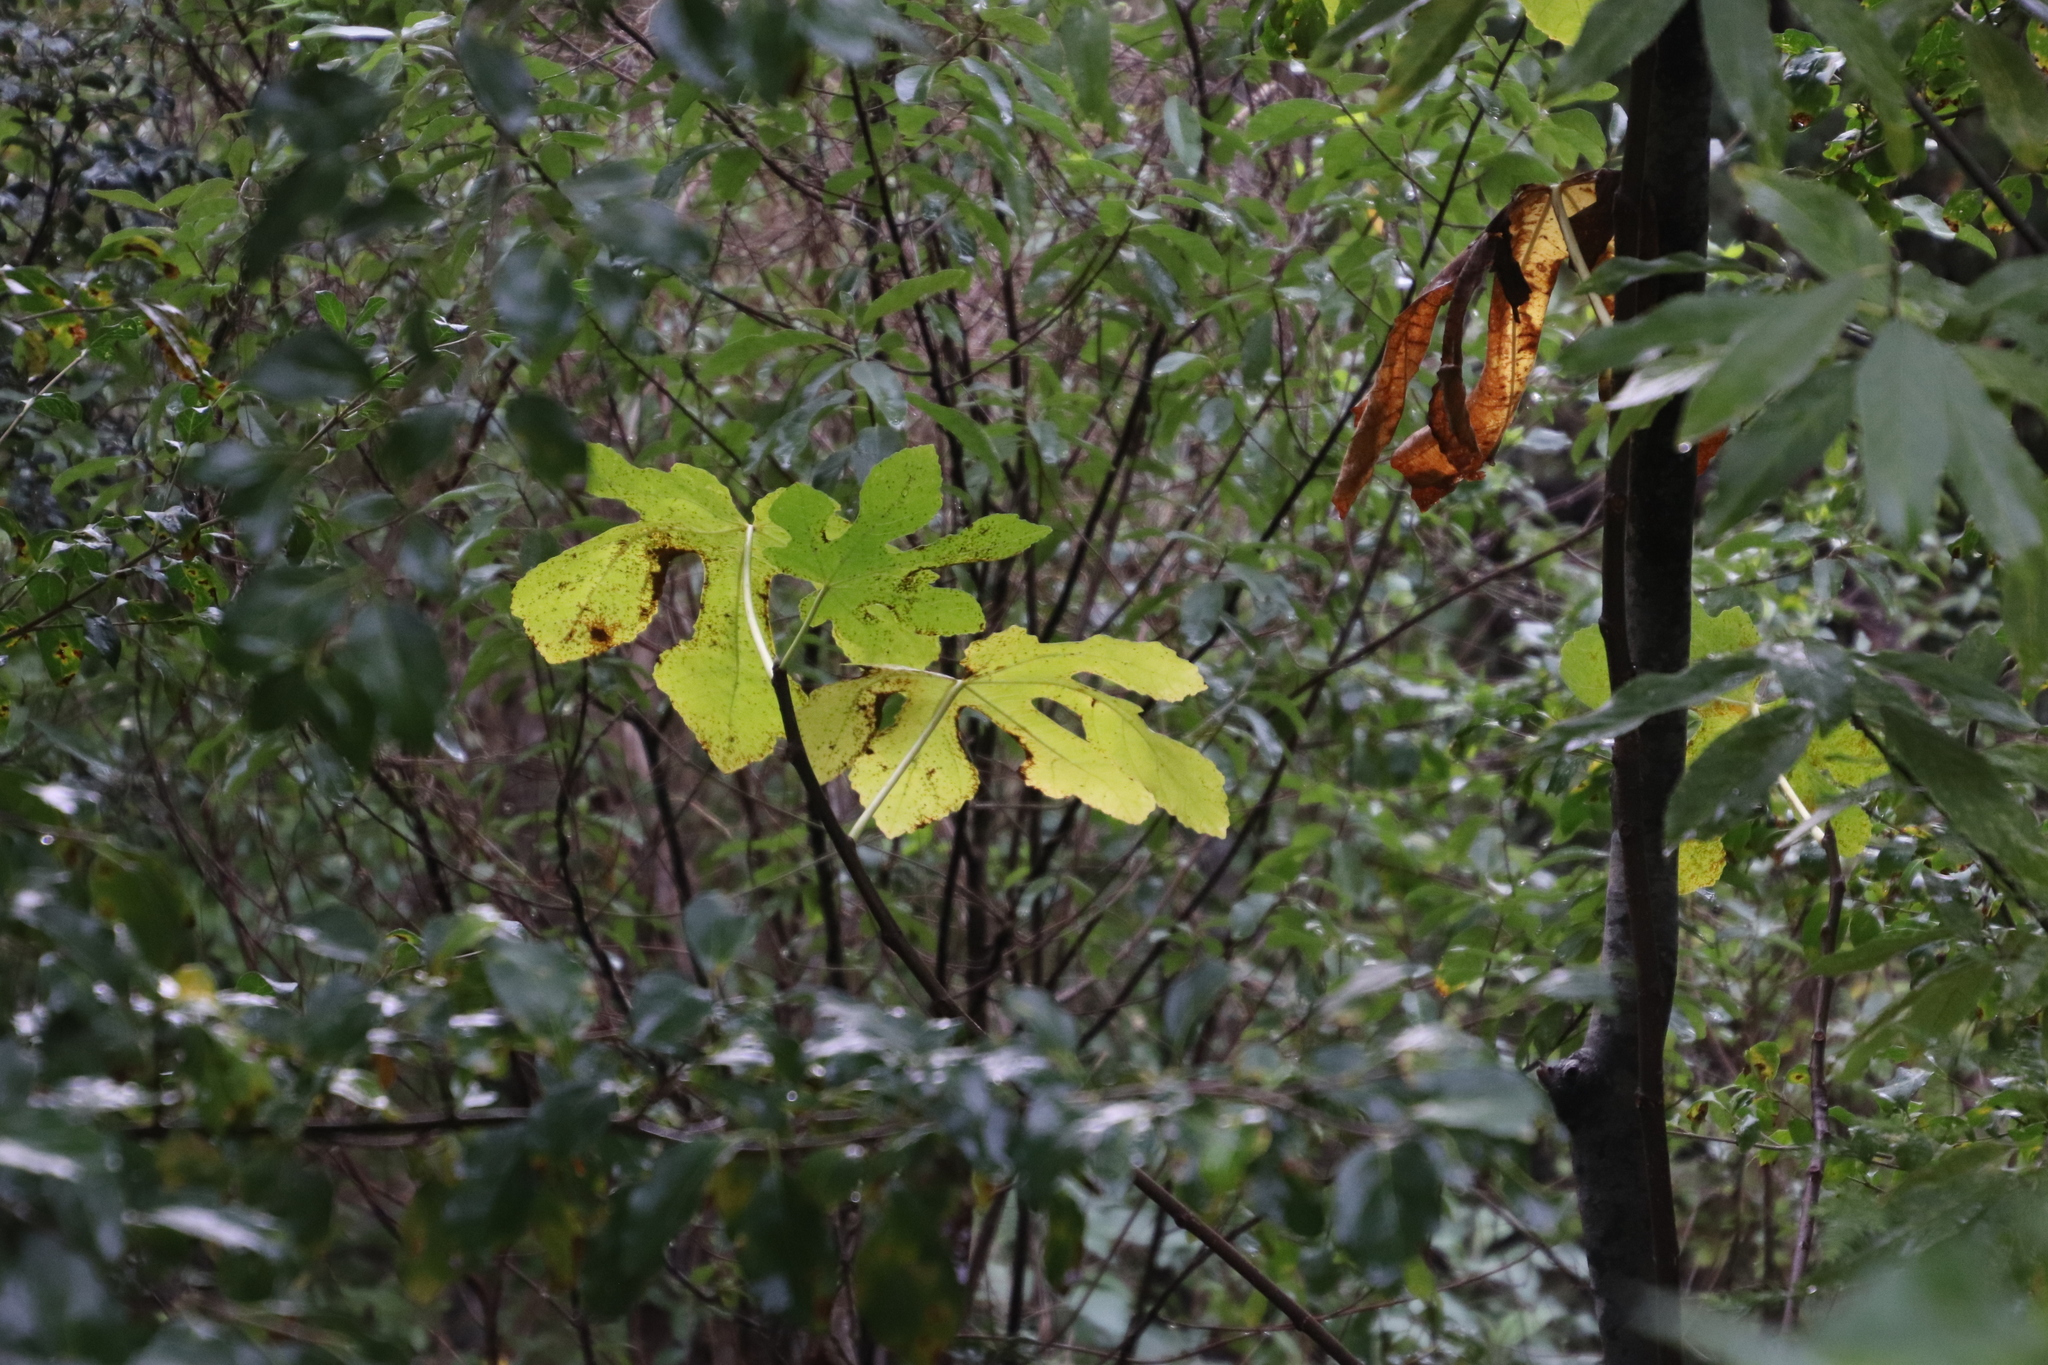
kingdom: Plantae
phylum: Tracheophyta
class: Magnoliopsida
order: Rosales
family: Moraceae
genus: Ficus
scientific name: Ficus carica
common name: Fig
